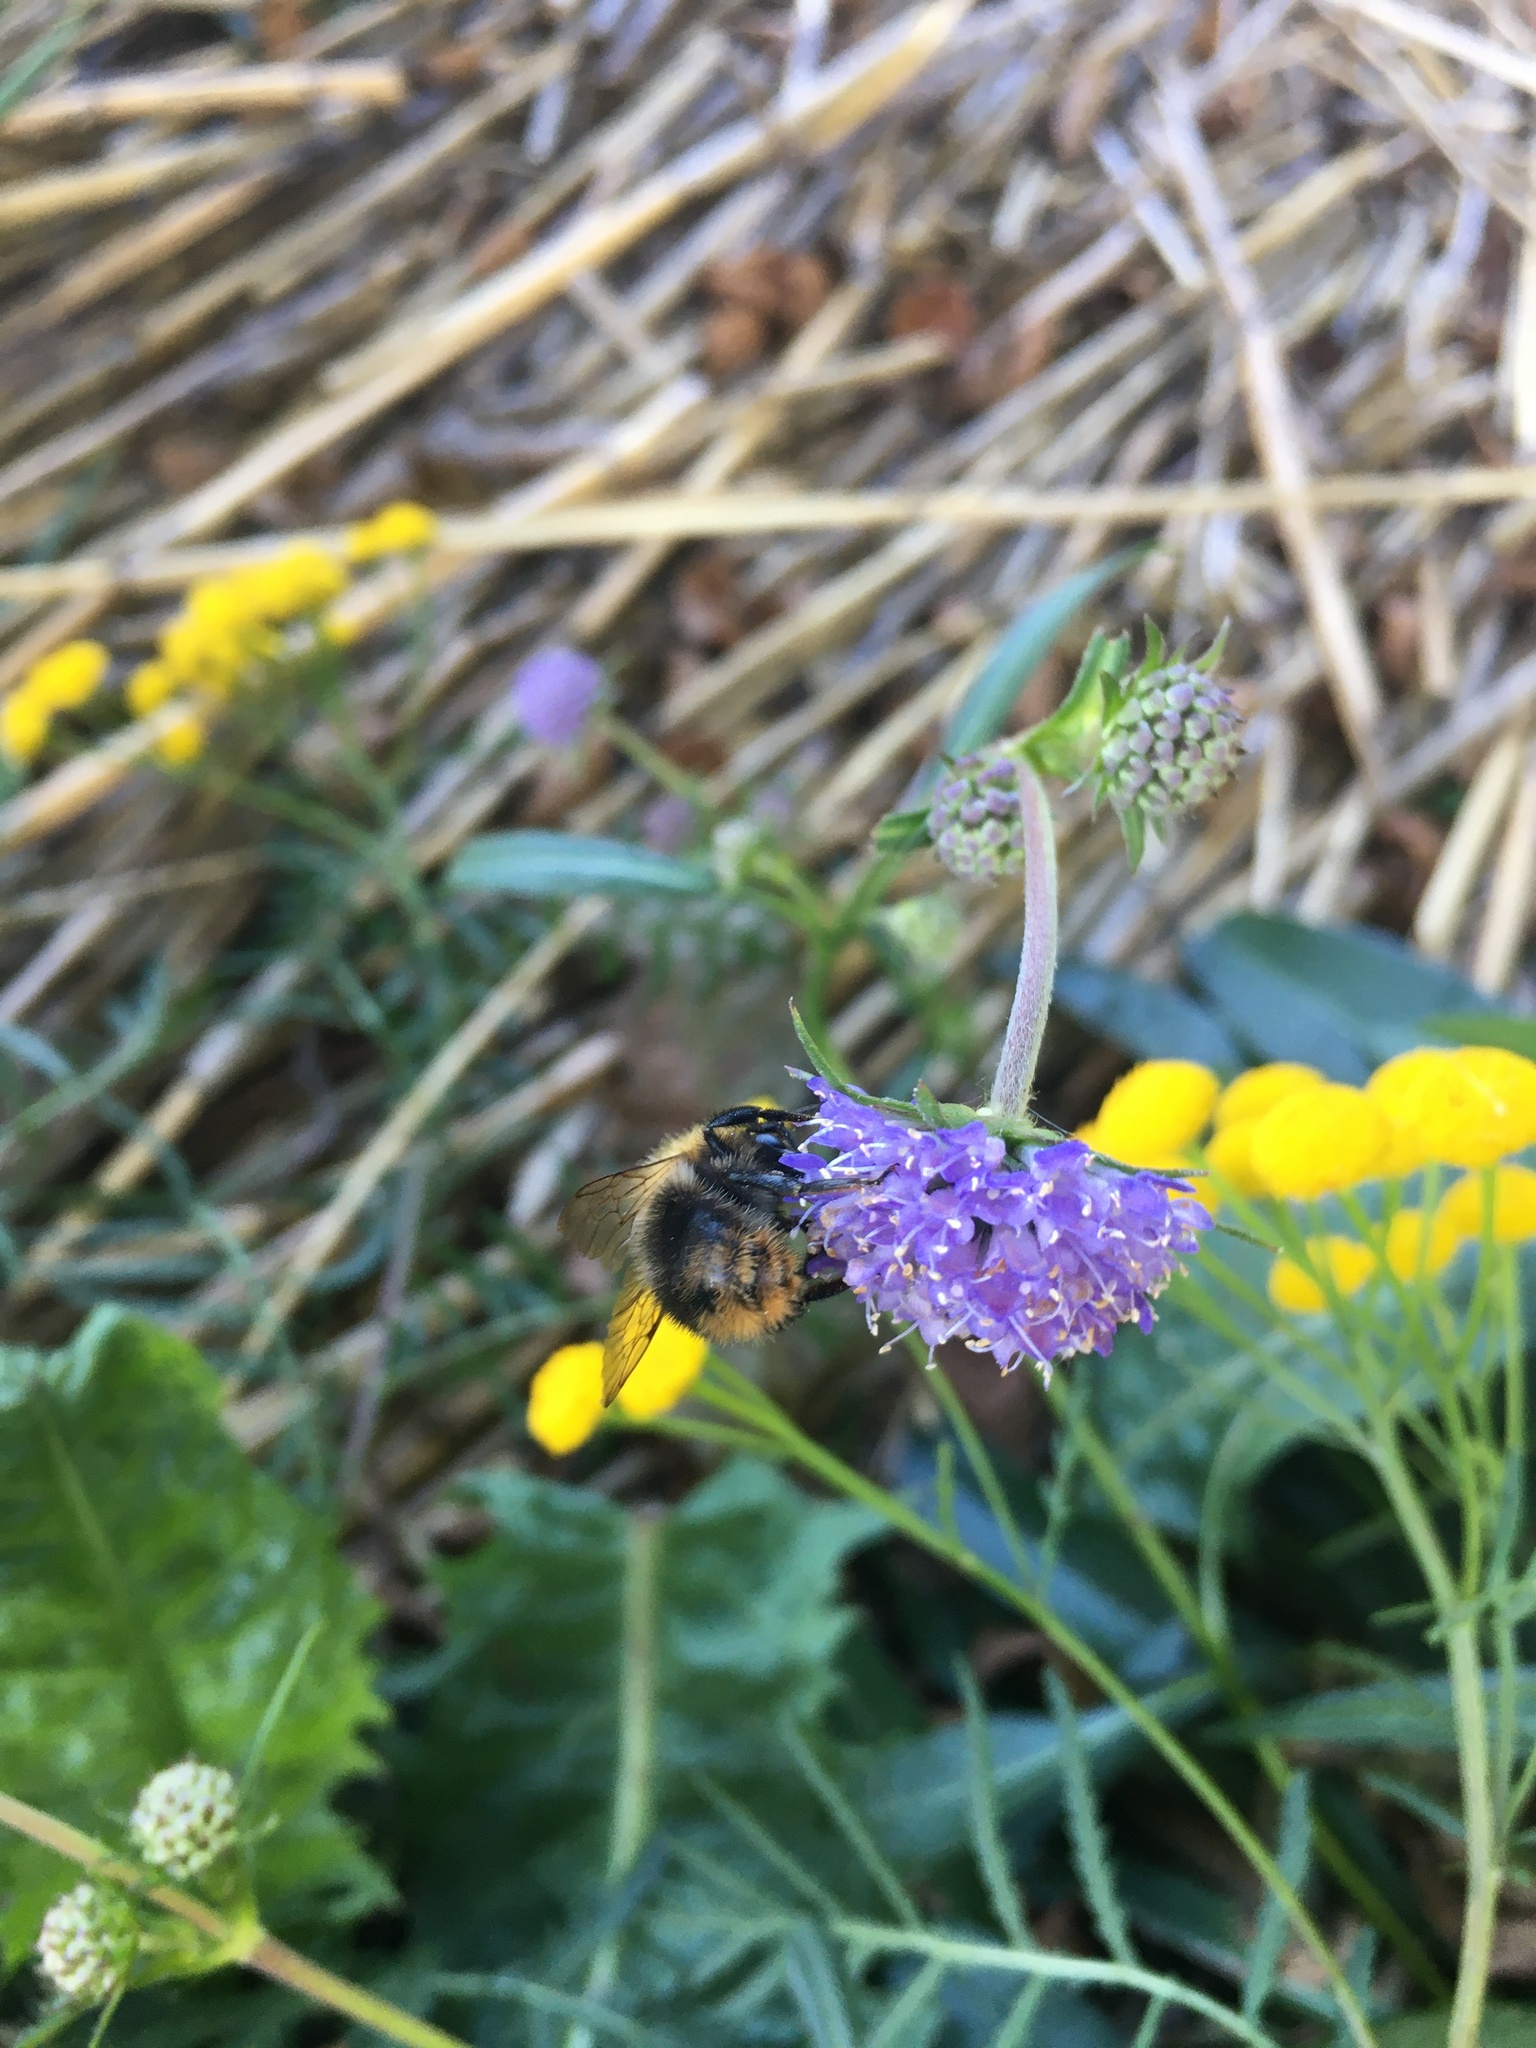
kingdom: Animalia
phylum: Arthropoda
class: Insecta
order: Hymenoptera
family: Apidae
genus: Bombus
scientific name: Bombus pascuorum
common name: Common carder bee
